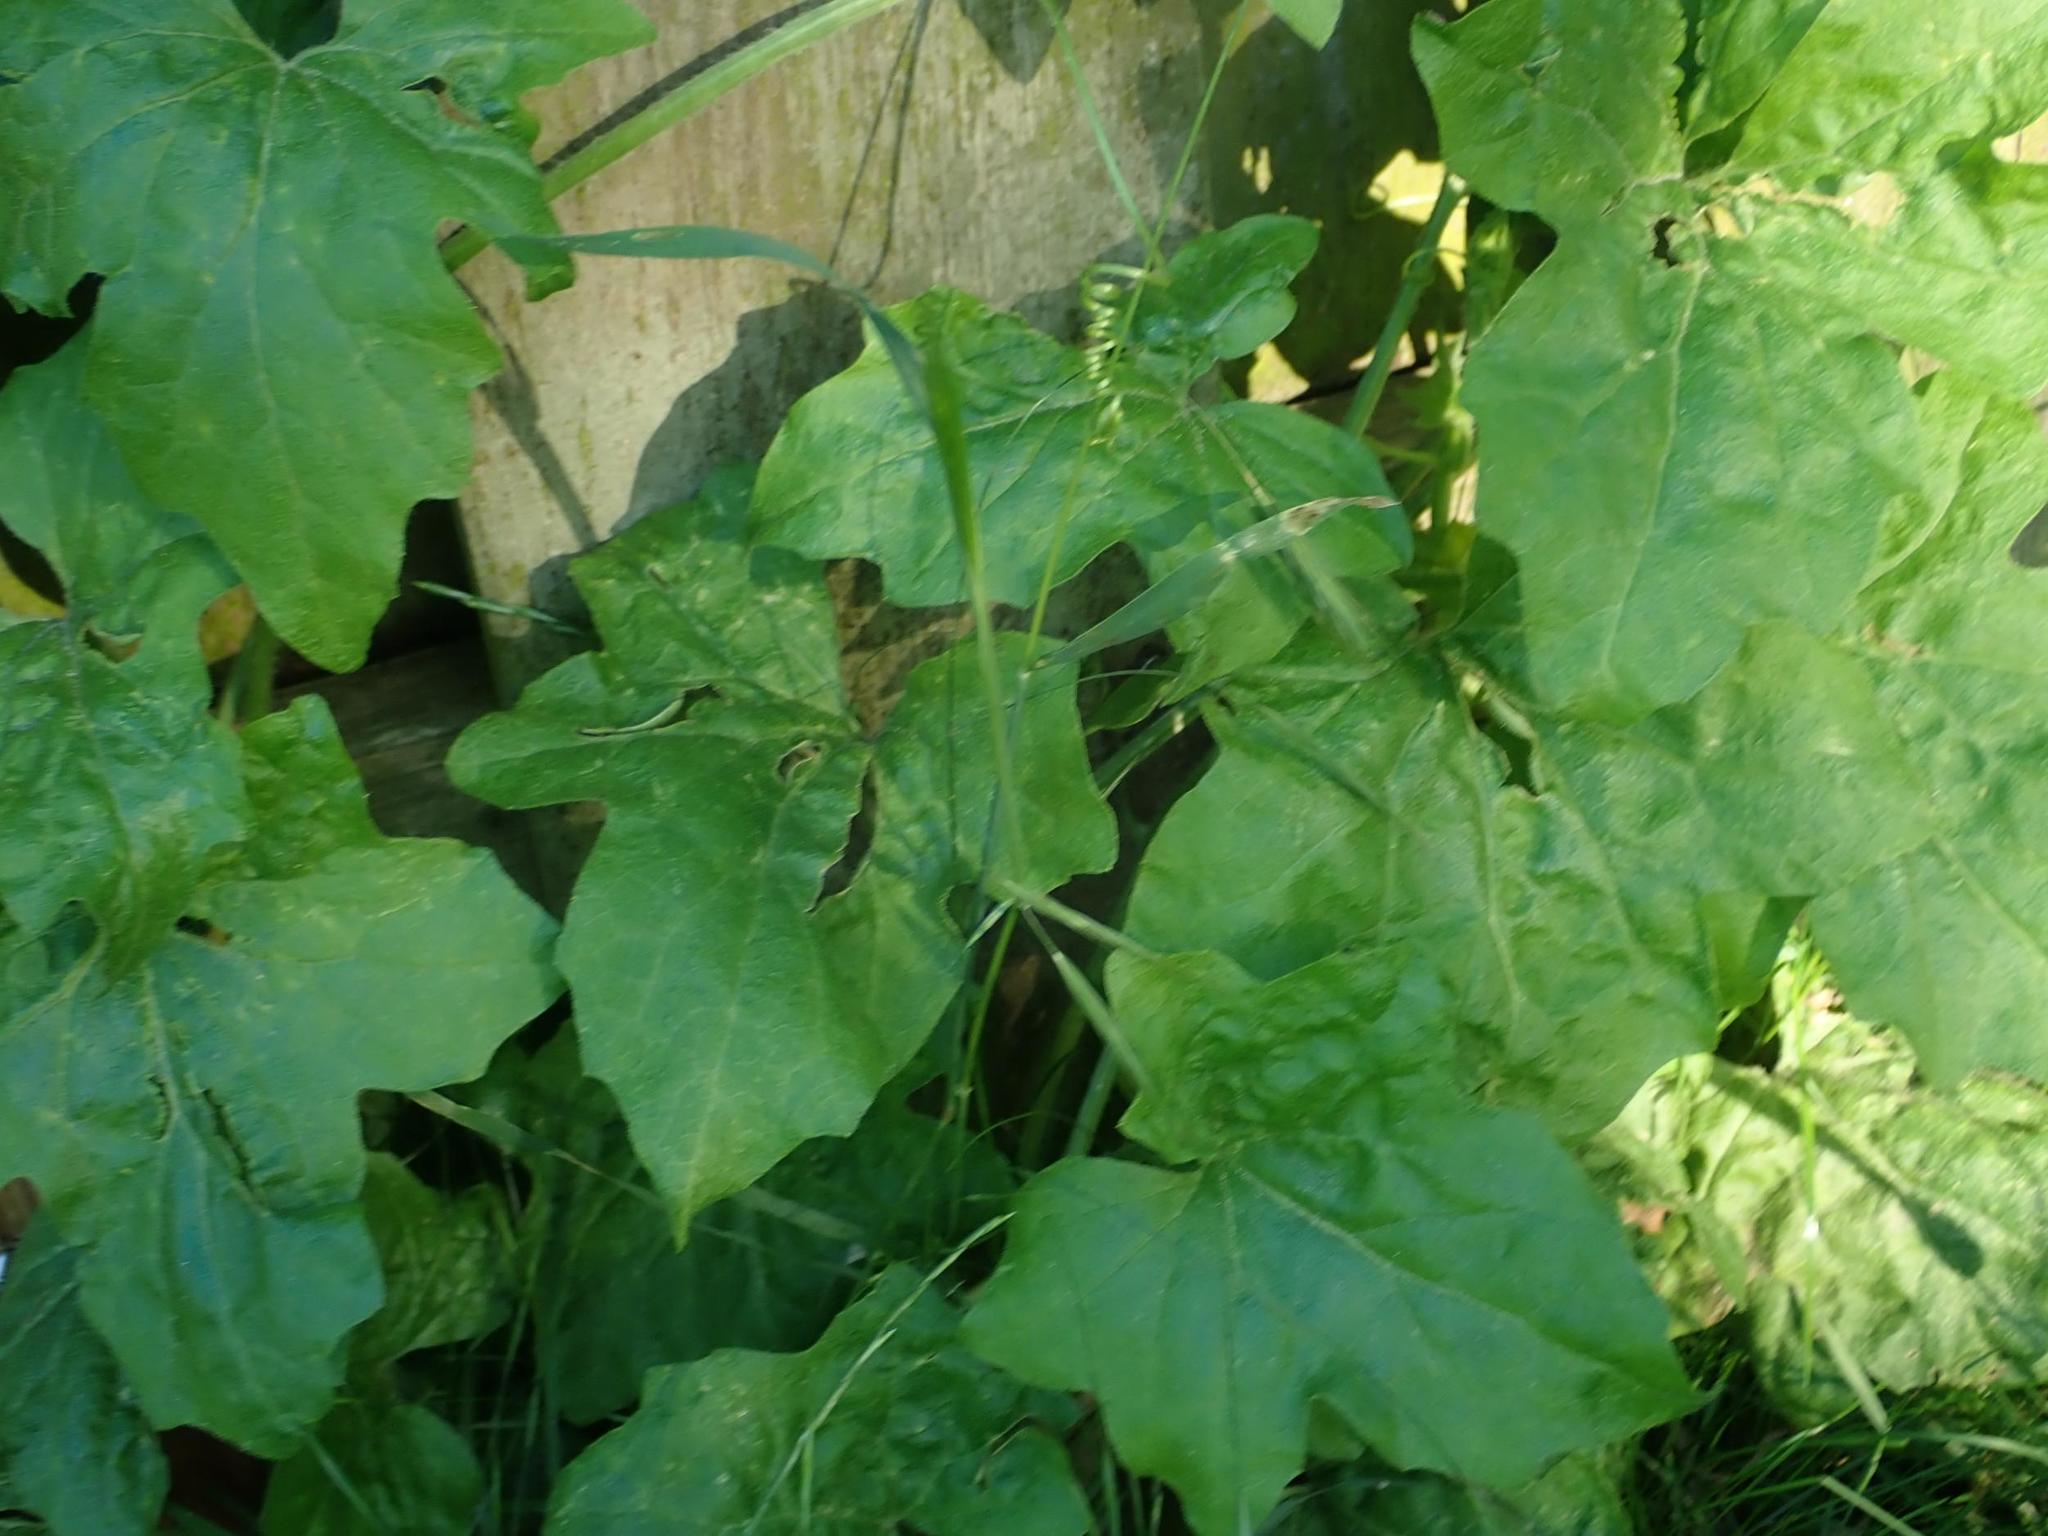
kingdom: Plantae
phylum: Tracheophyta
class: Magnoliopsida
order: Cucurbitales
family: Cucurbitaceae
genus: Bryonia
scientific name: Bryonia cretica
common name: Cretan bryony
